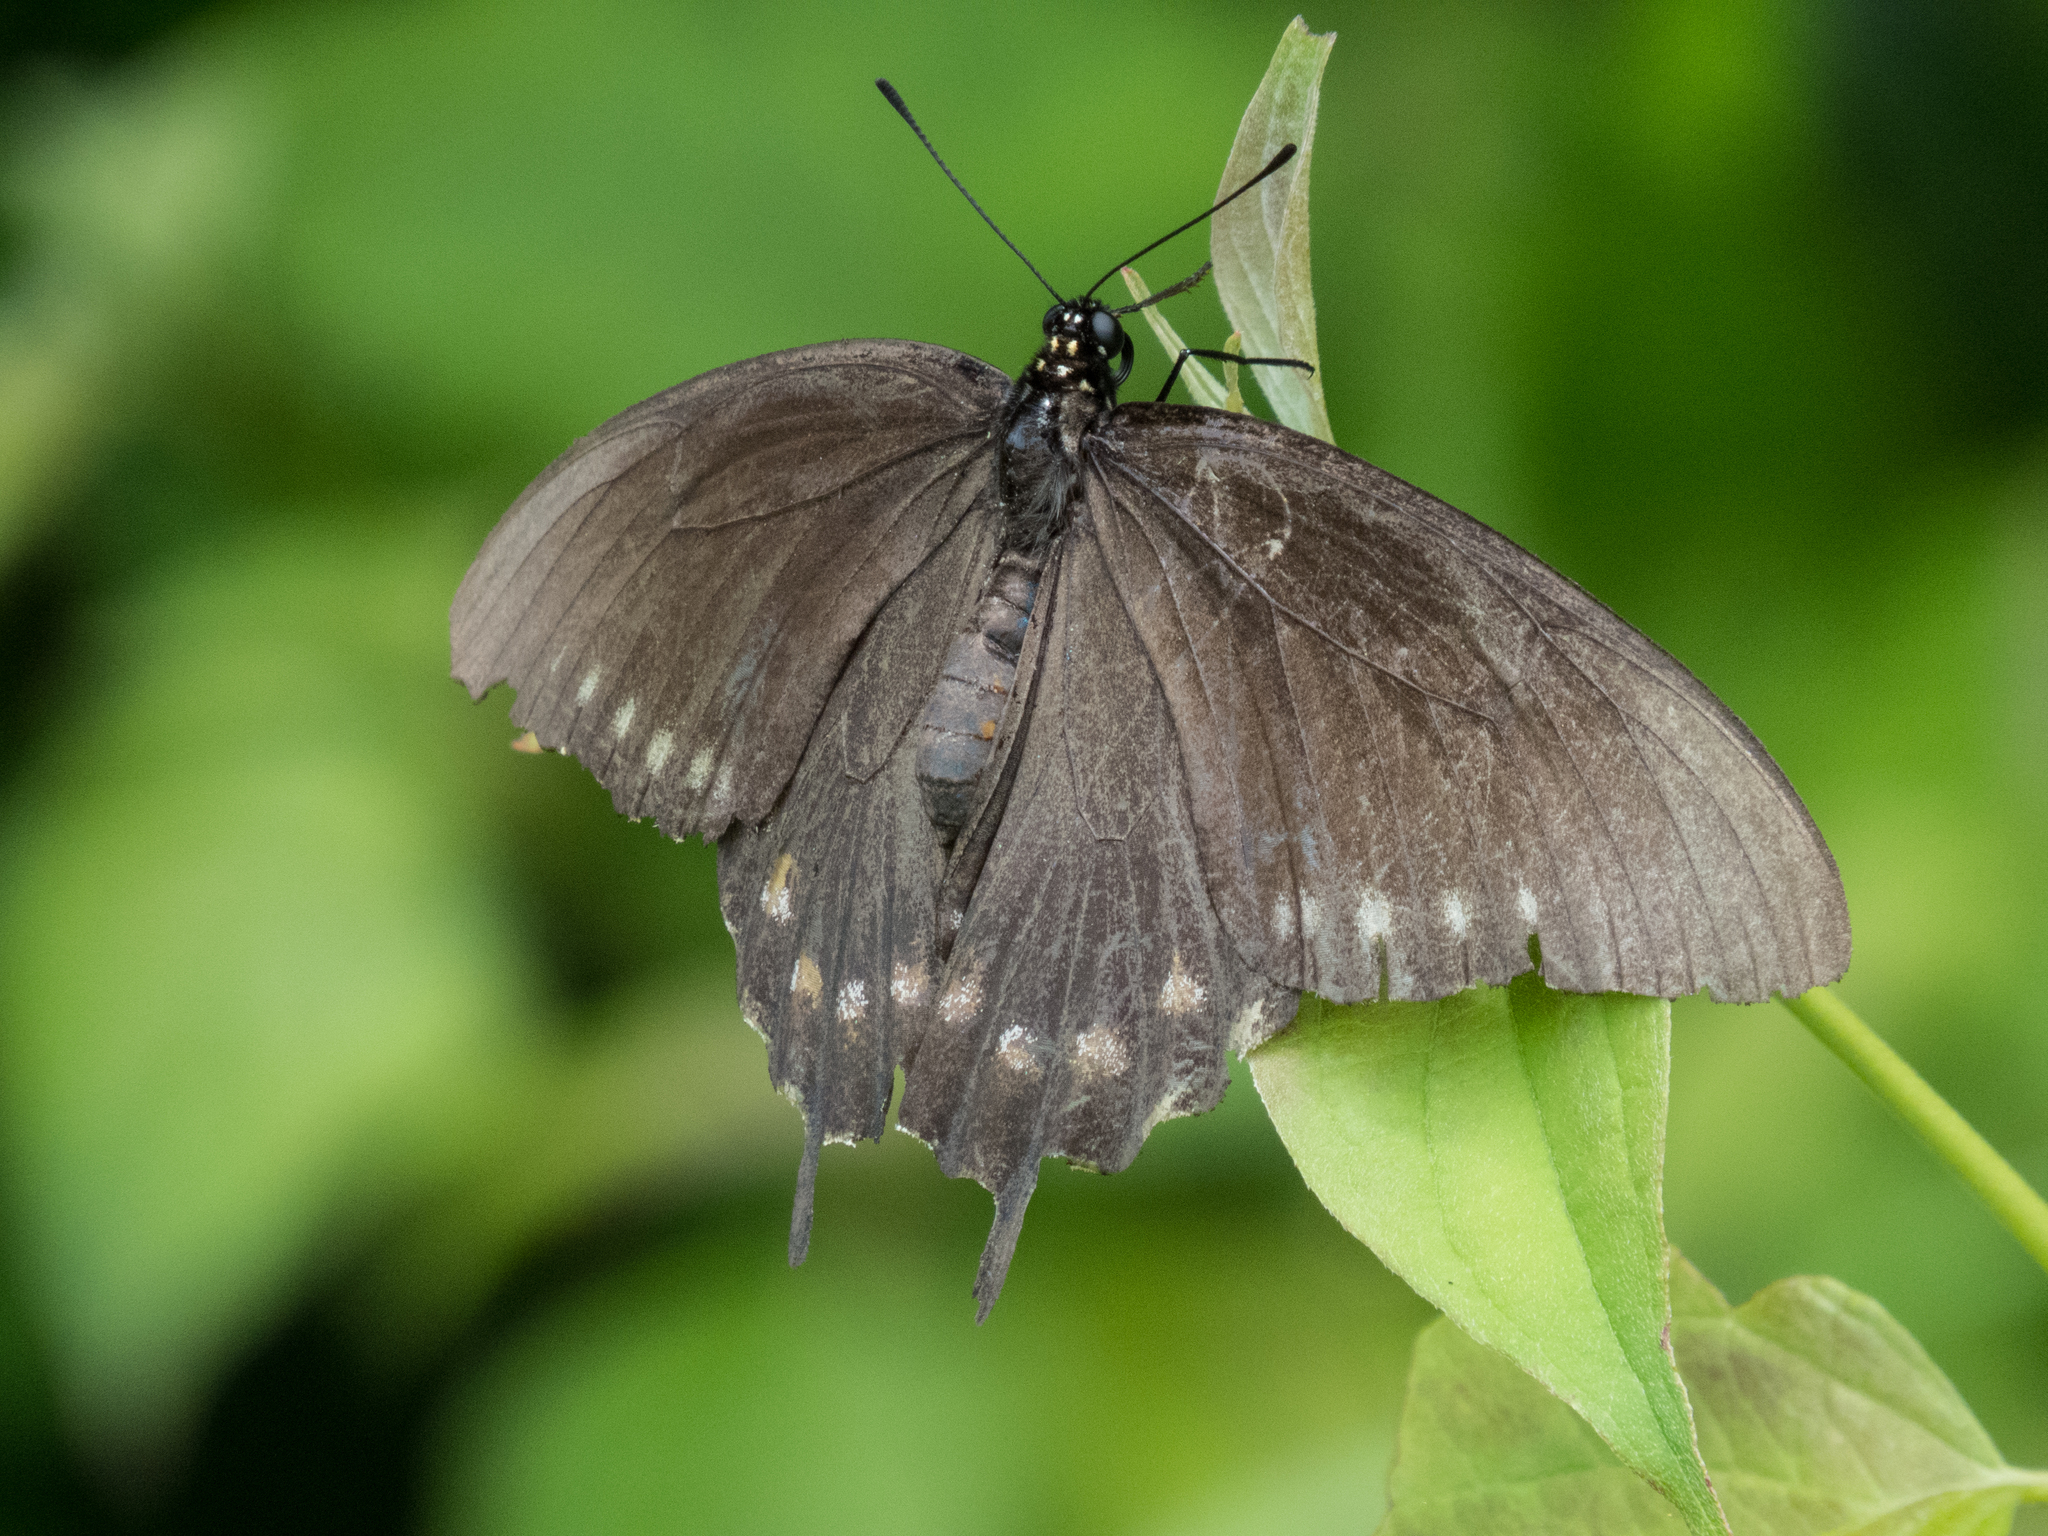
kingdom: Animalia
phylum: Arthropoda
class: Insecta
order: Lepidoptera
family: Papilionidae
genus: Battus
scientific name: Battus philenor
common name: Pipevine swallowtail
